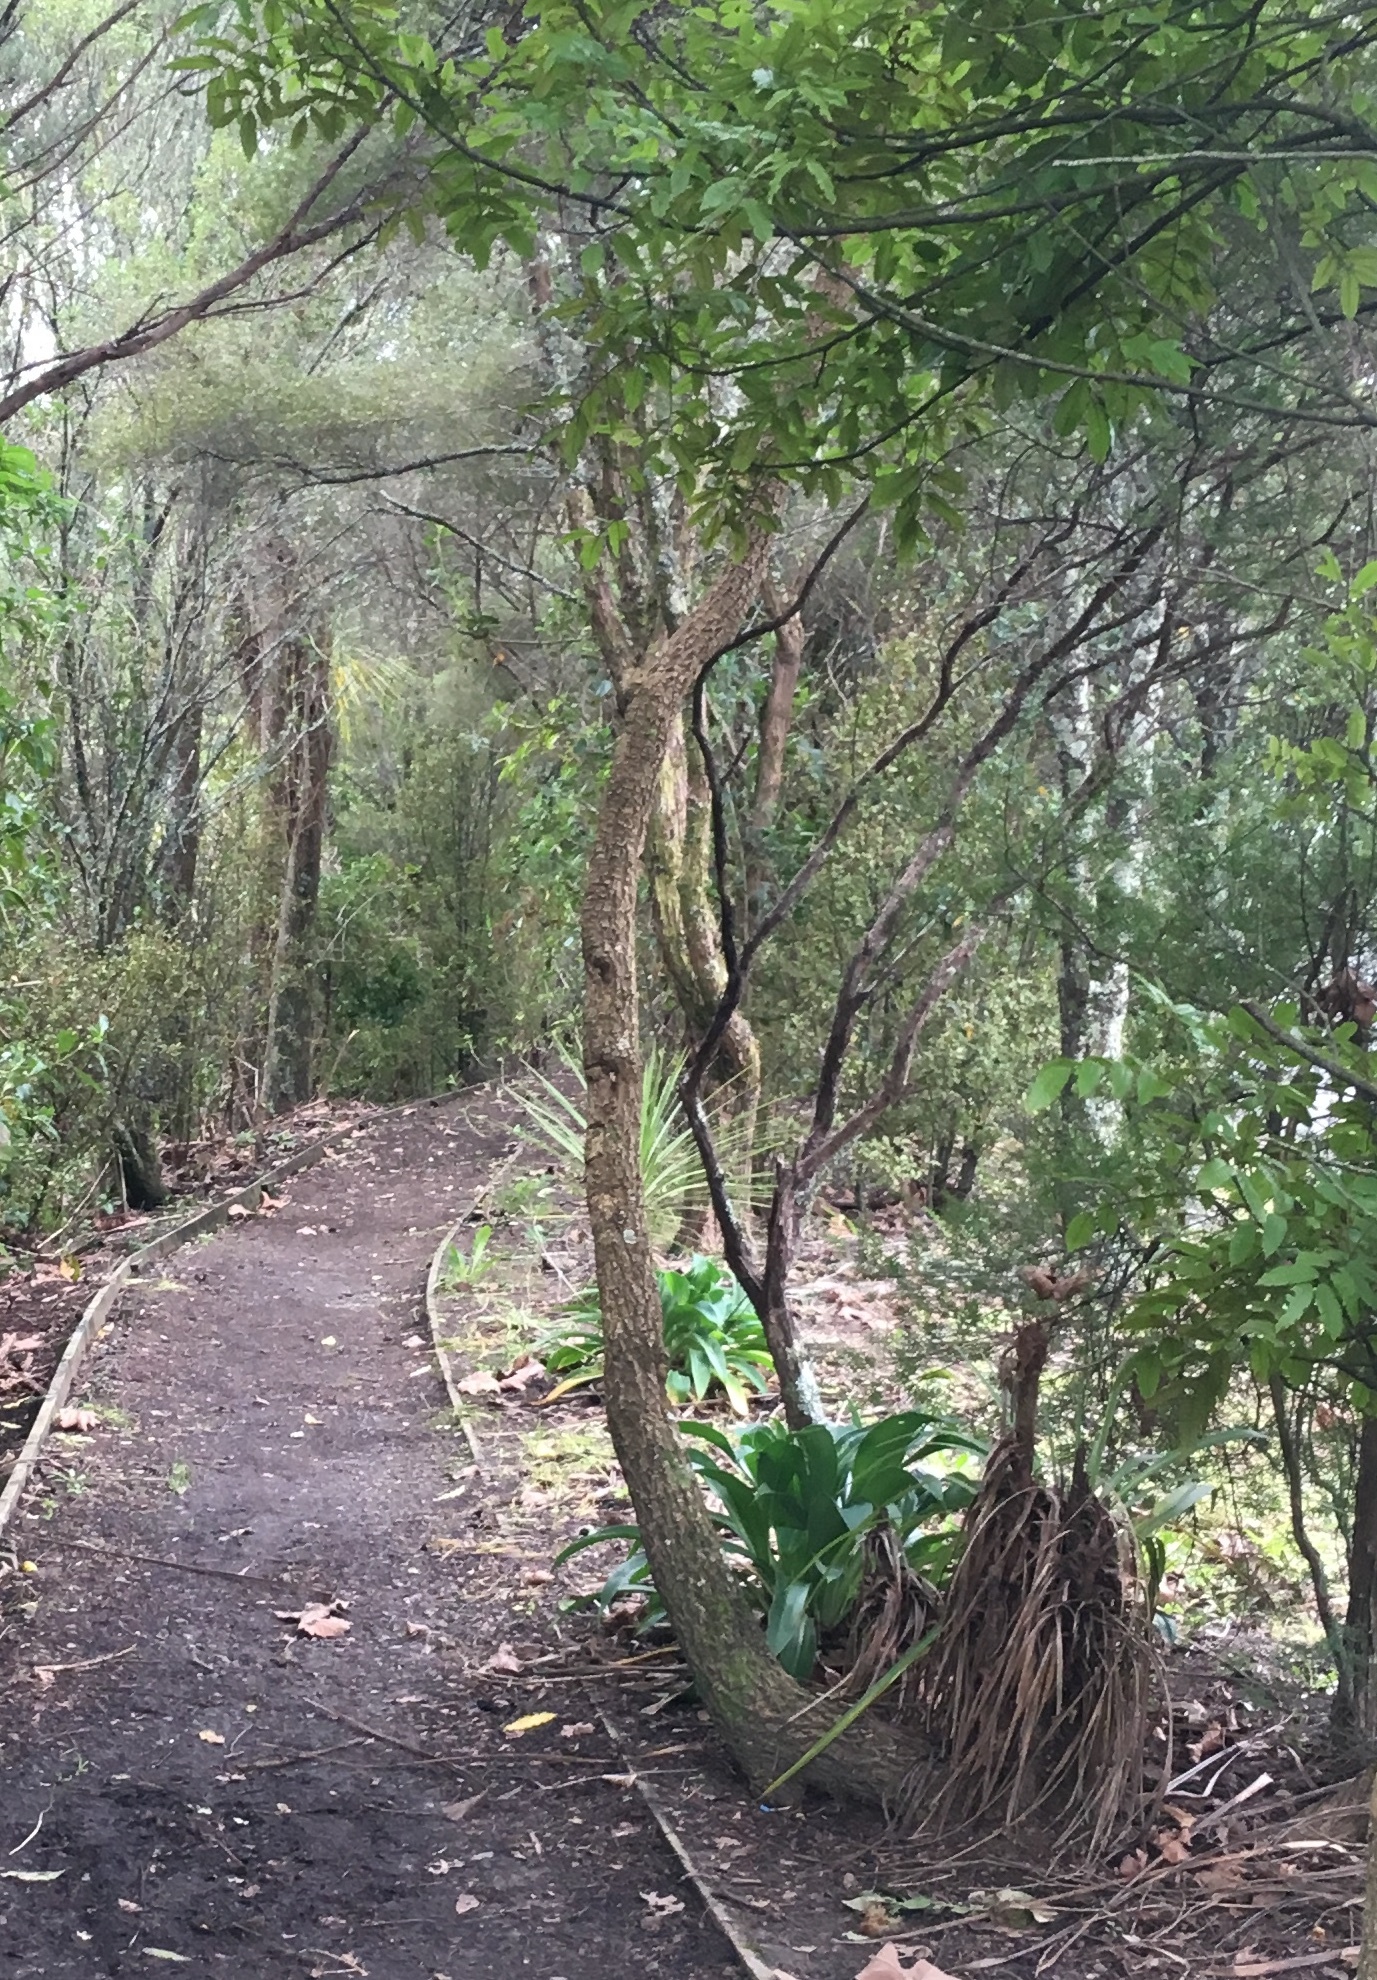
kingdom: Plantae
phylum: Tracheophyta
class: Liliopsida
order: Asparagales
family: Asparagaceae
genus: Cordyline
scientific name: Cordyline australis
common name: Cabbage-palm
